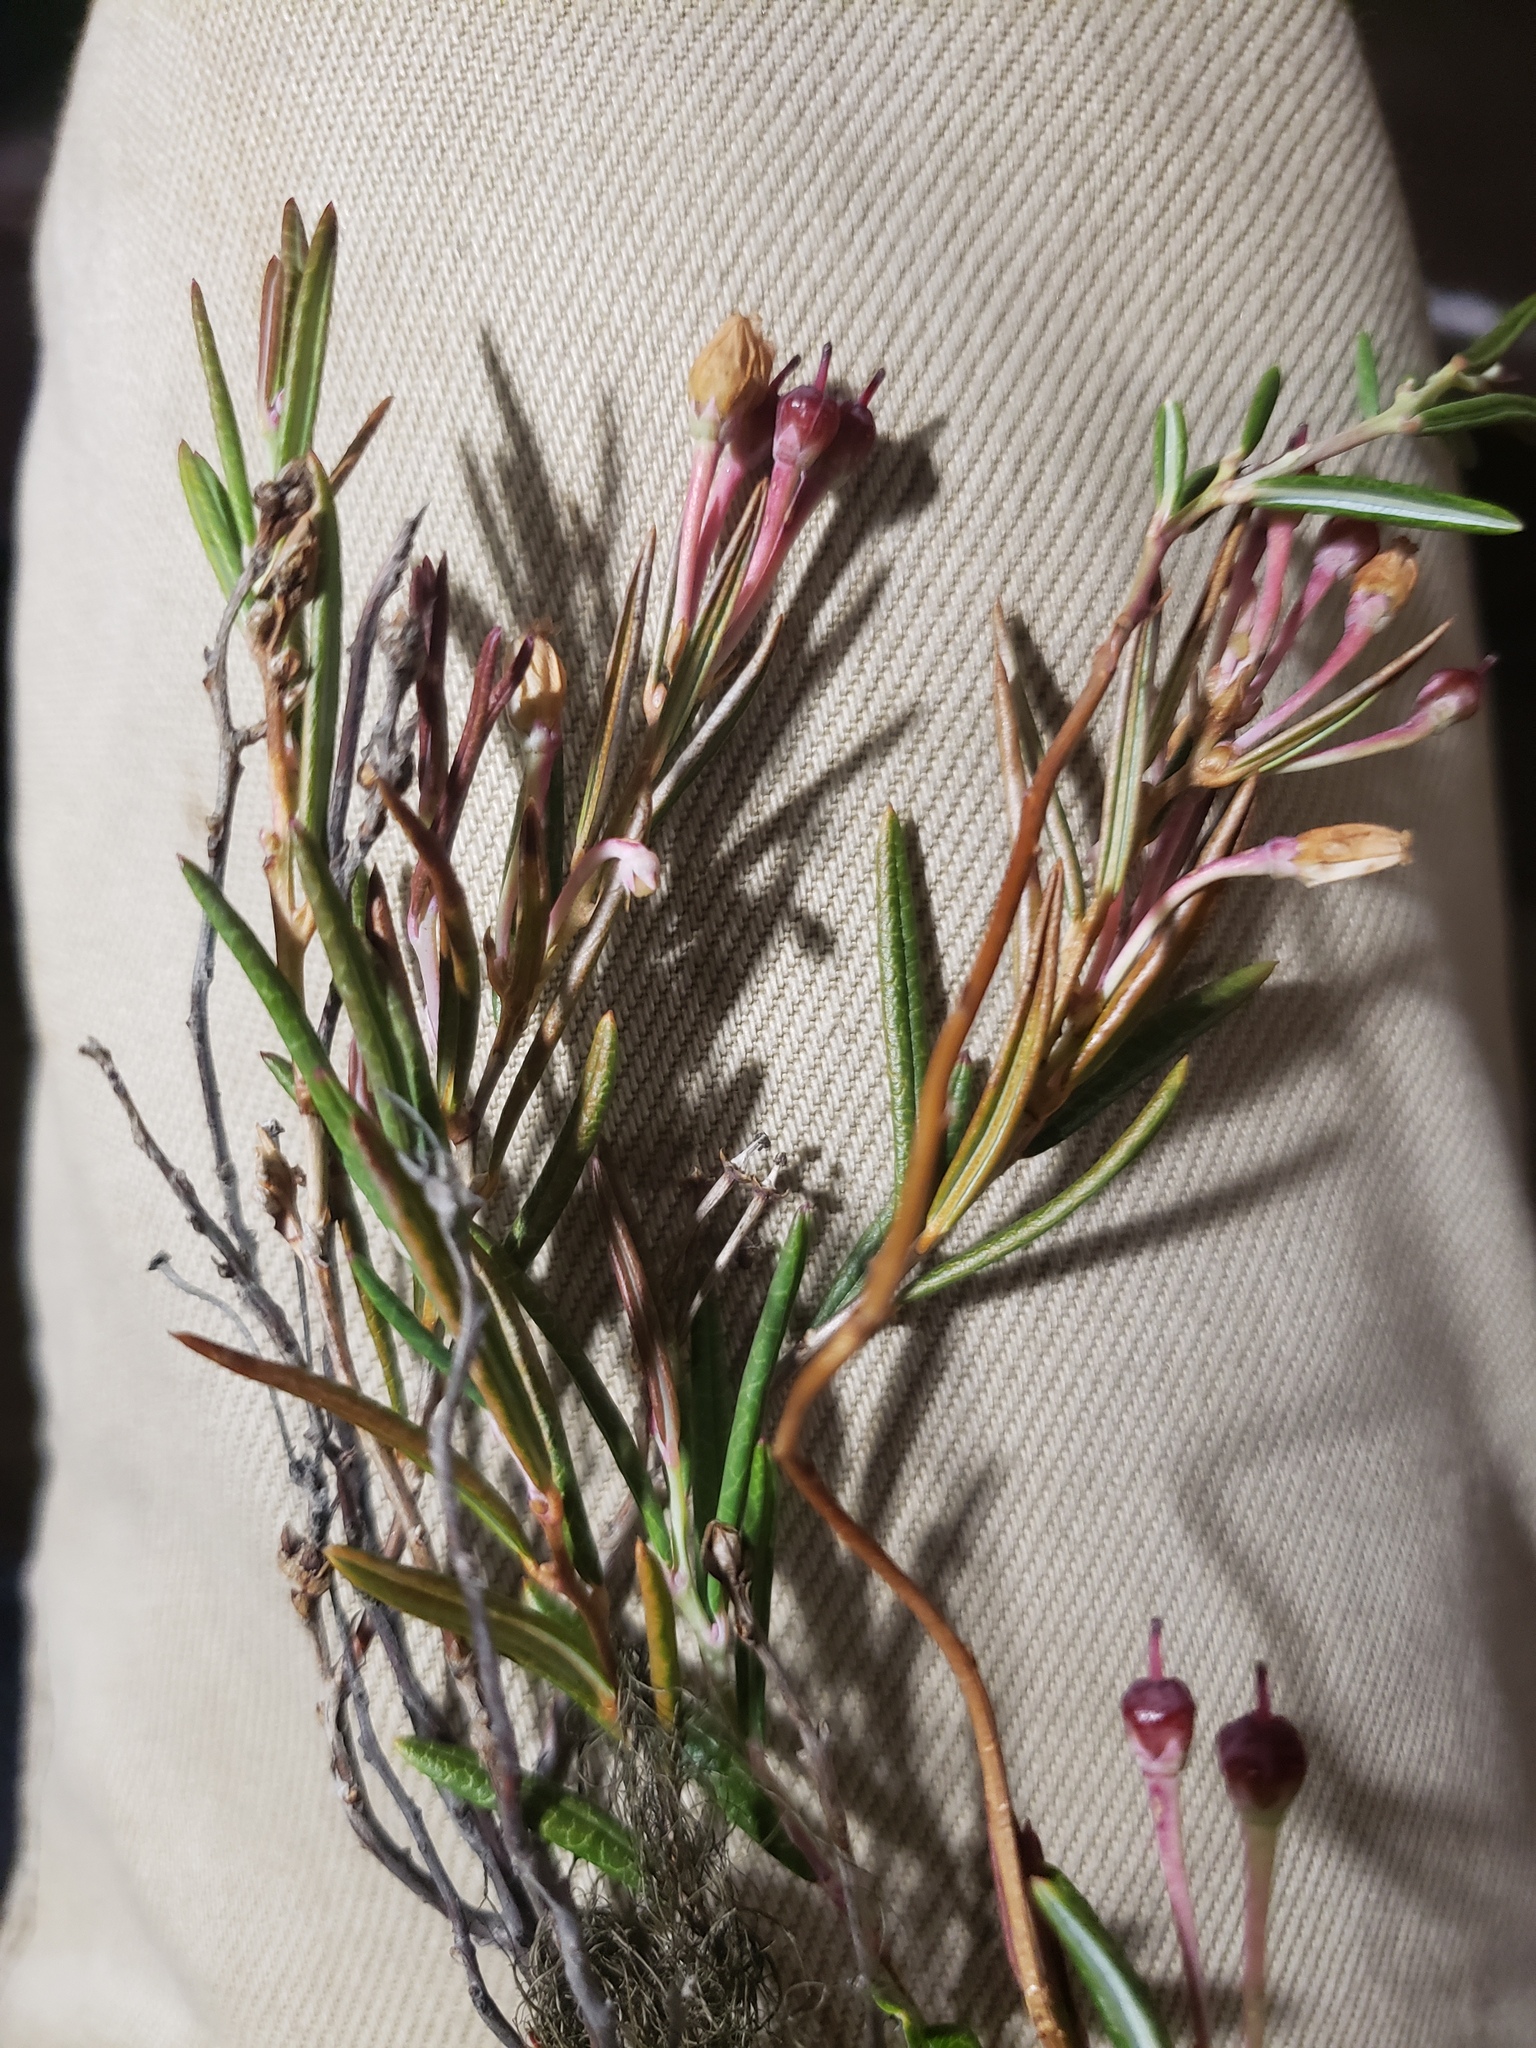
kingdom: Plantae
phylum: Tracheophyta
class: Magnoliopsida
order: Ericales
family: Ericaceae
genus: Andromeda
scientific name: Andromeda polifolia
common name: Bog-rosemary
